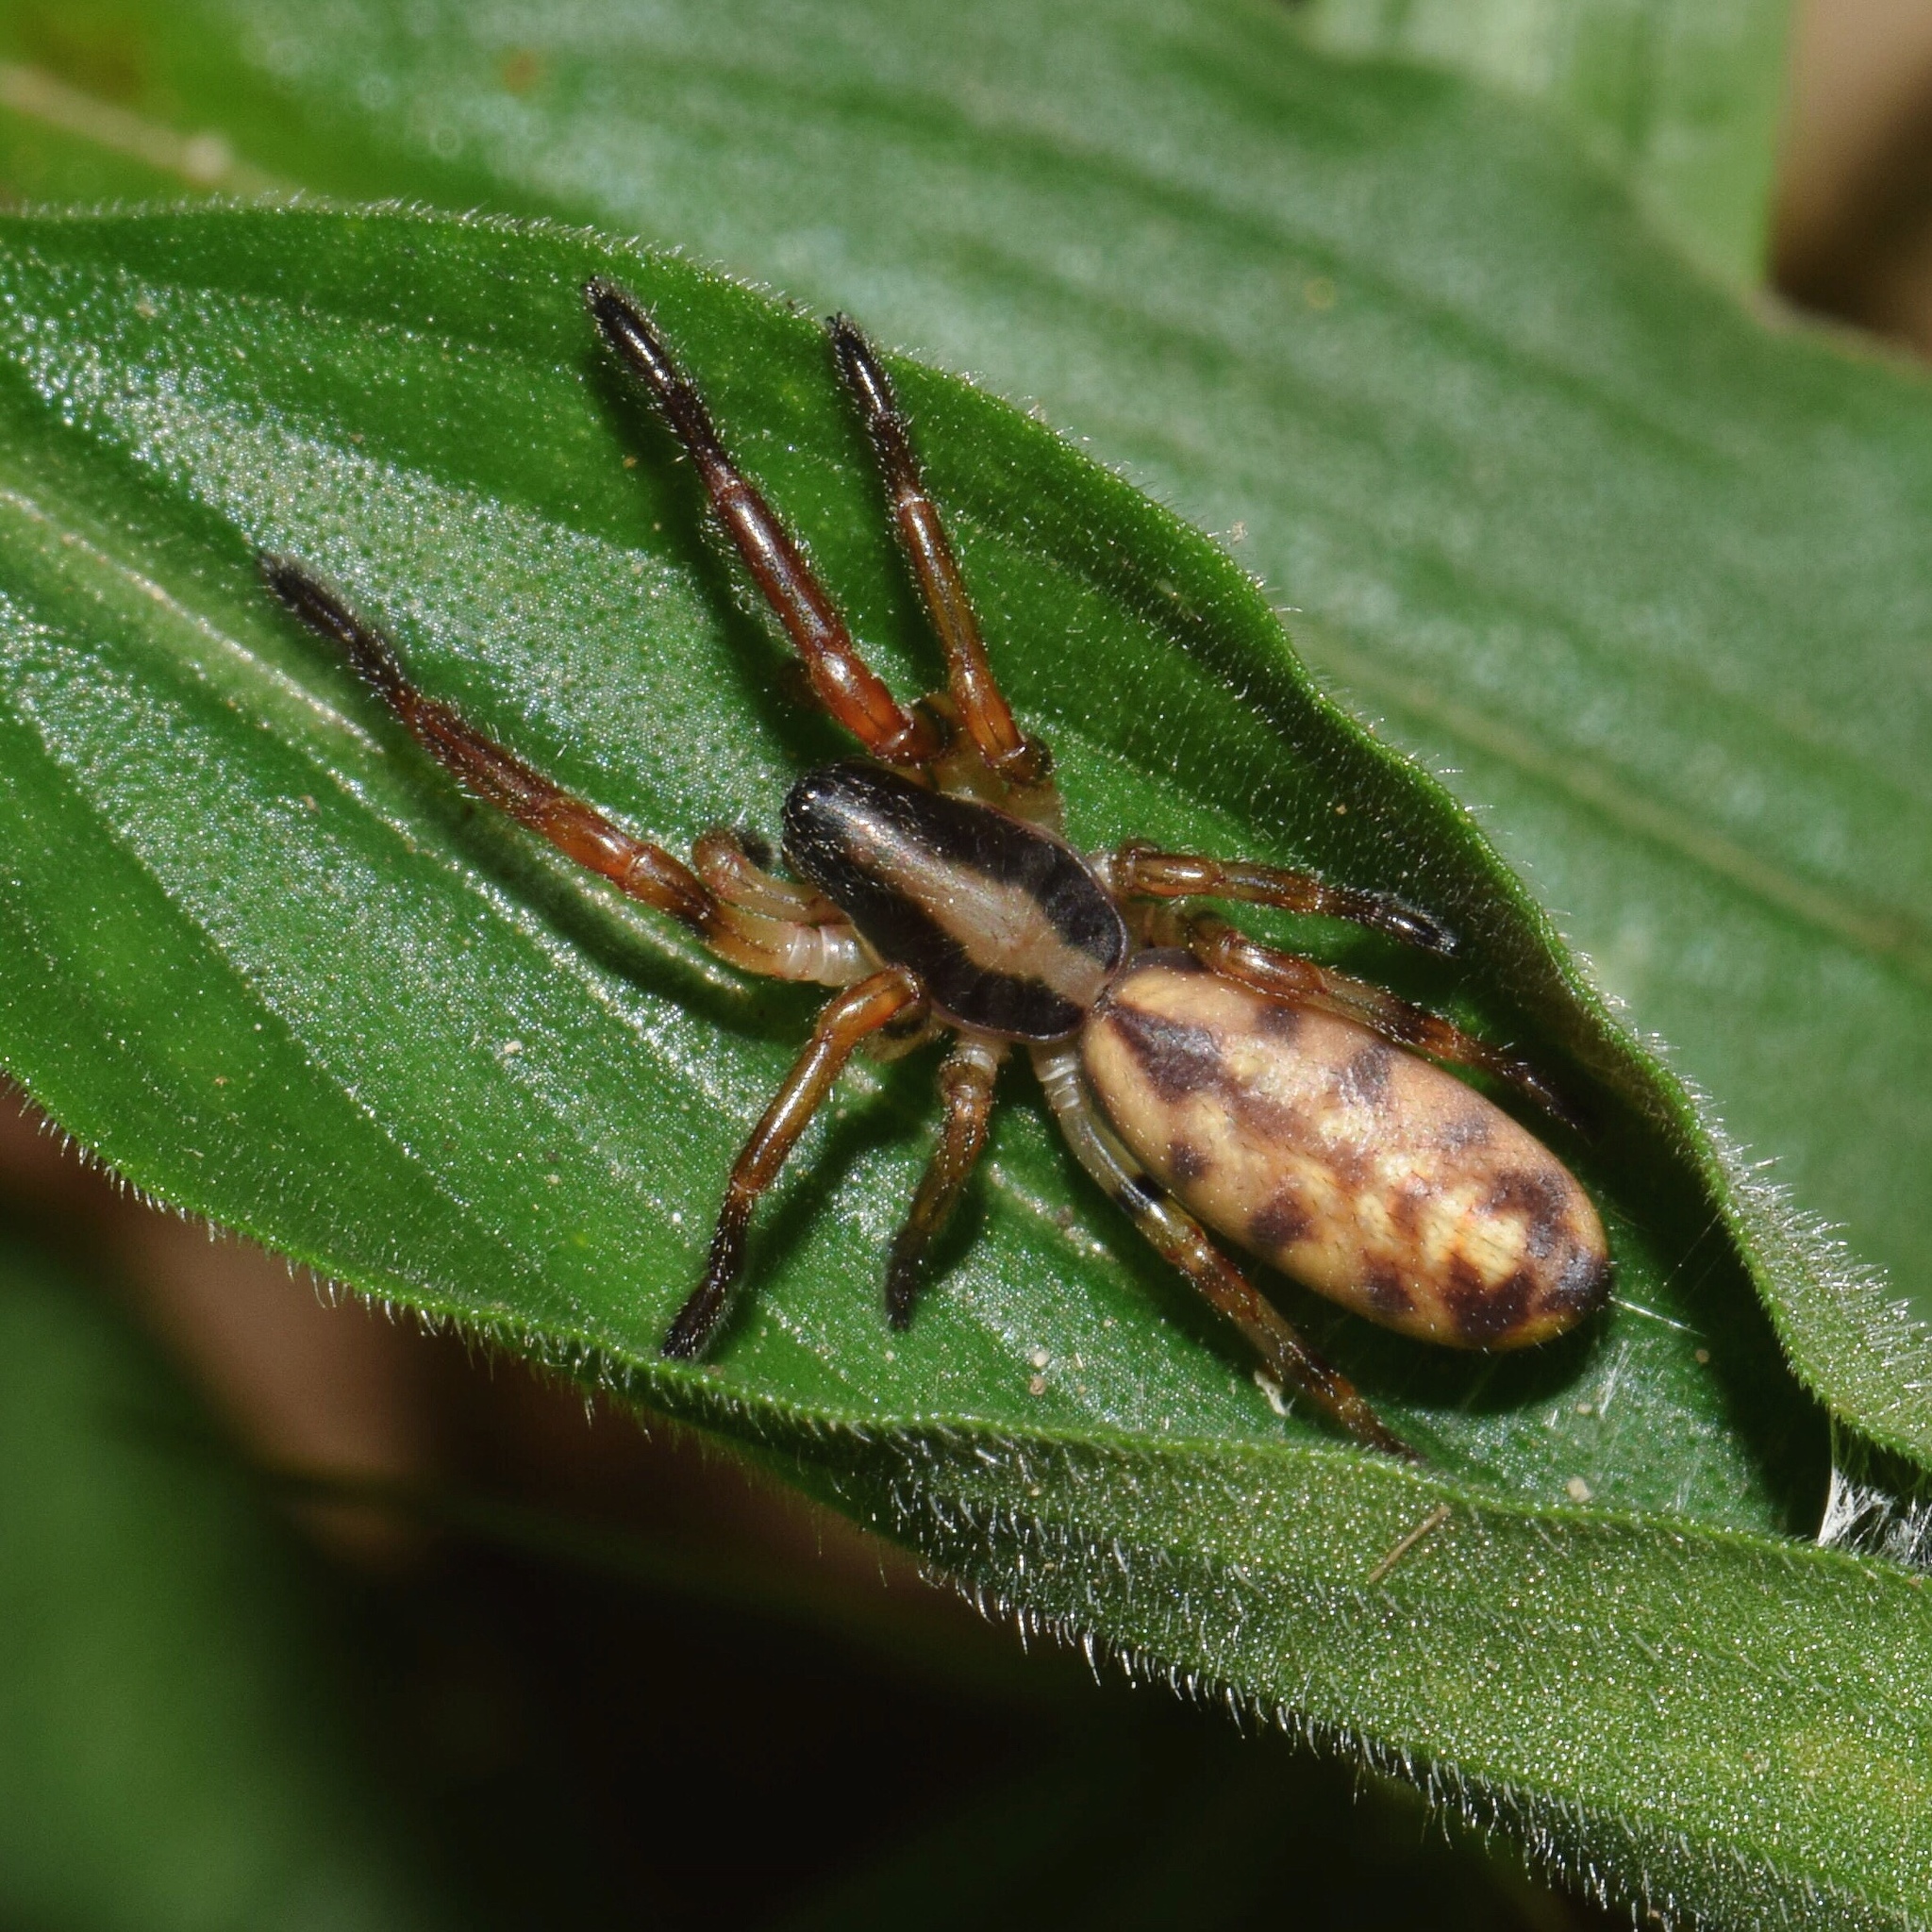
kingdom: Animalia
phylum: Arthropoda
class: Arachnida
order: Araneae
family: Zodariidae
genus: Cicynethus
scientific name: Cicynethus decoratus
